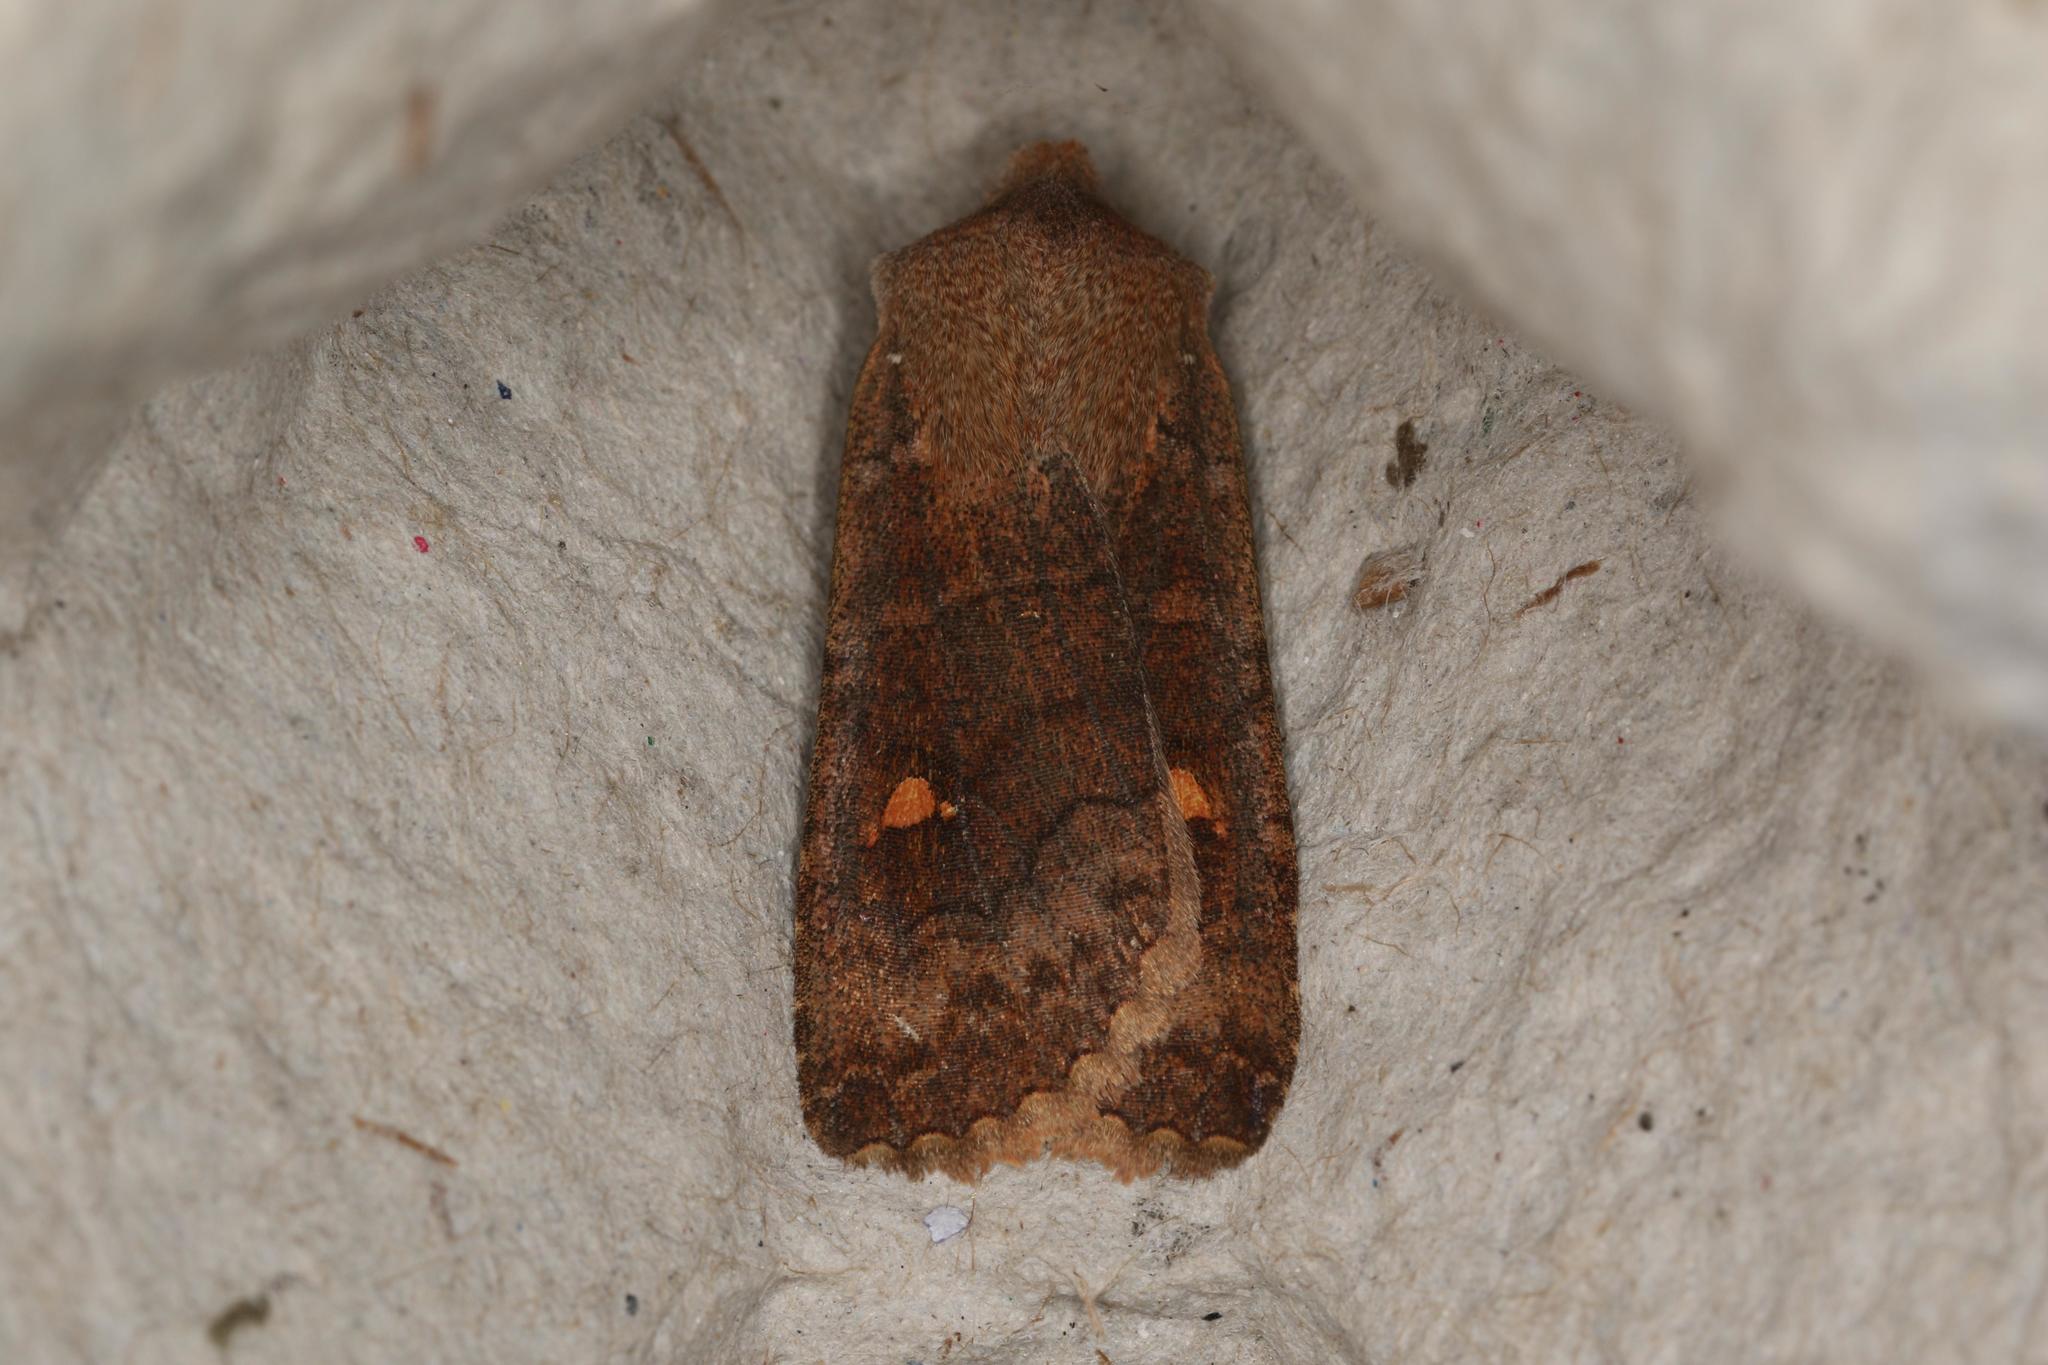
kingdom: Animalia
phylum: Arthropoda
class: Insecta
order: Lepidoptera
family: Noctuidae
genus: Eupsilia
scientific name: Eupsilia transversa
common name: Satellite
